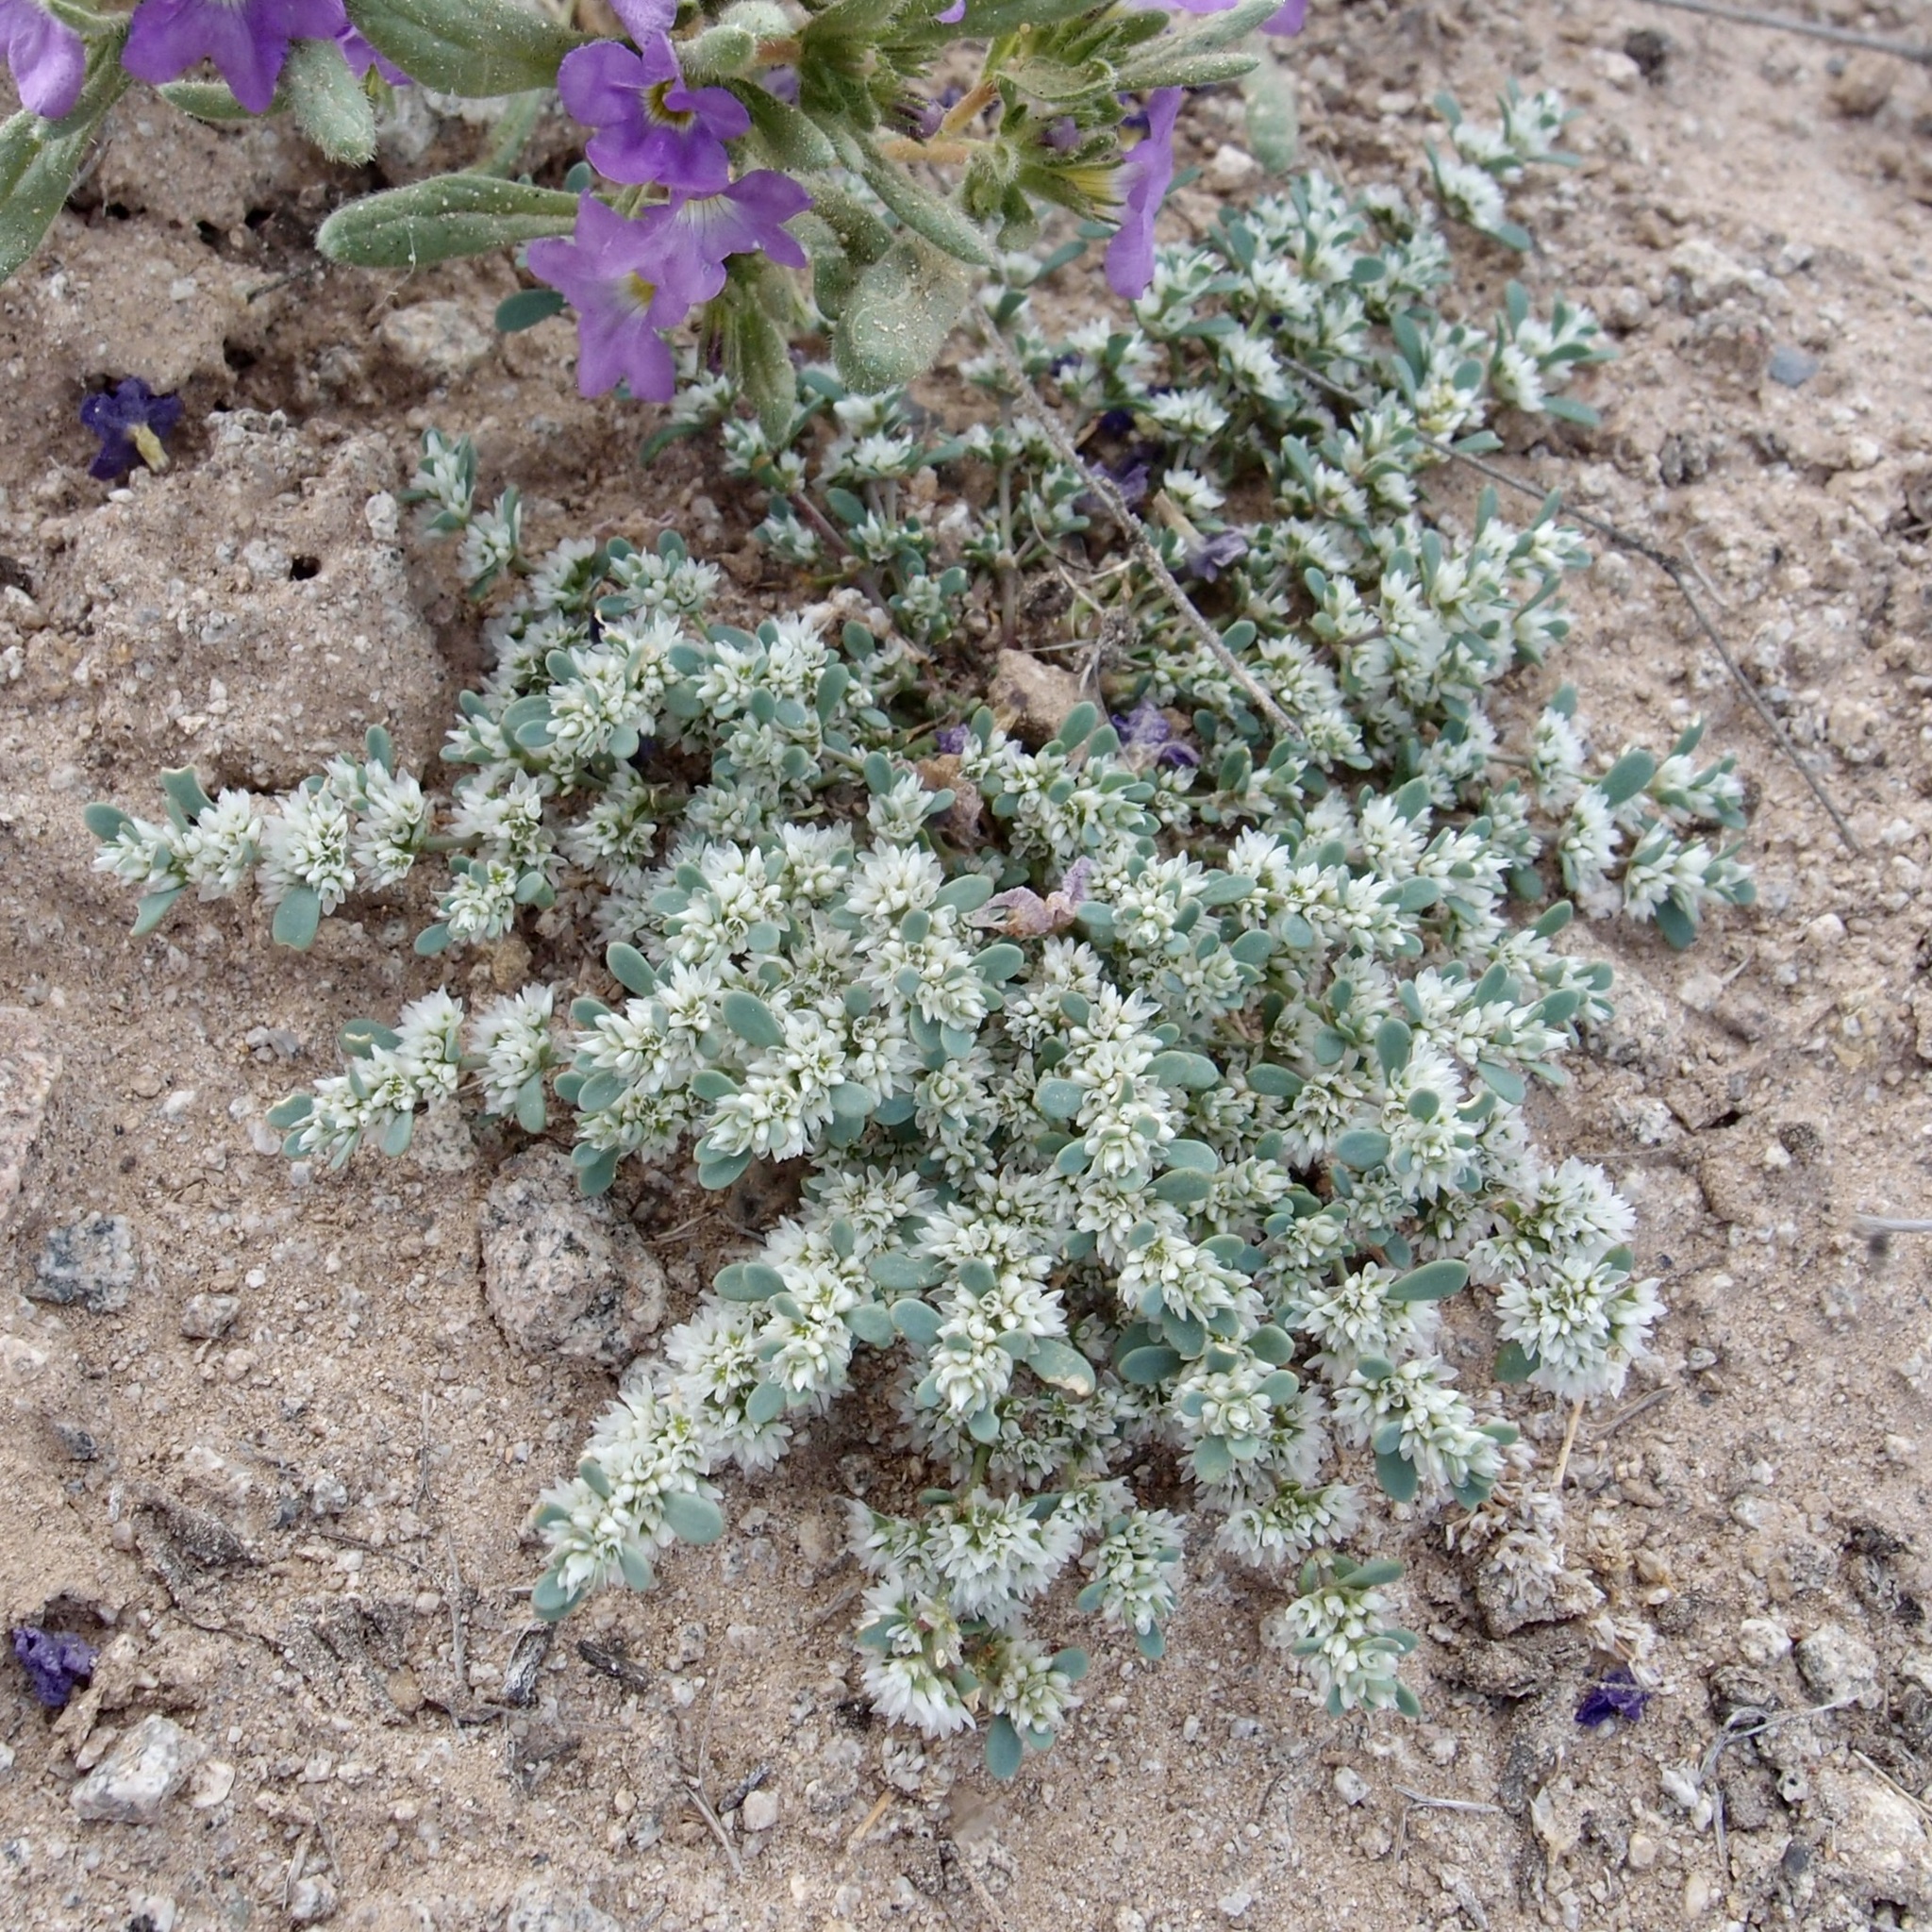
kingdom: Plantae
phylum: Tracheophyta
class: Magnoliopsida
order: Caryophyllales
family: Caryophyllaceae
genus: Achyronychia
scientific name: Achyronychia cooperi
